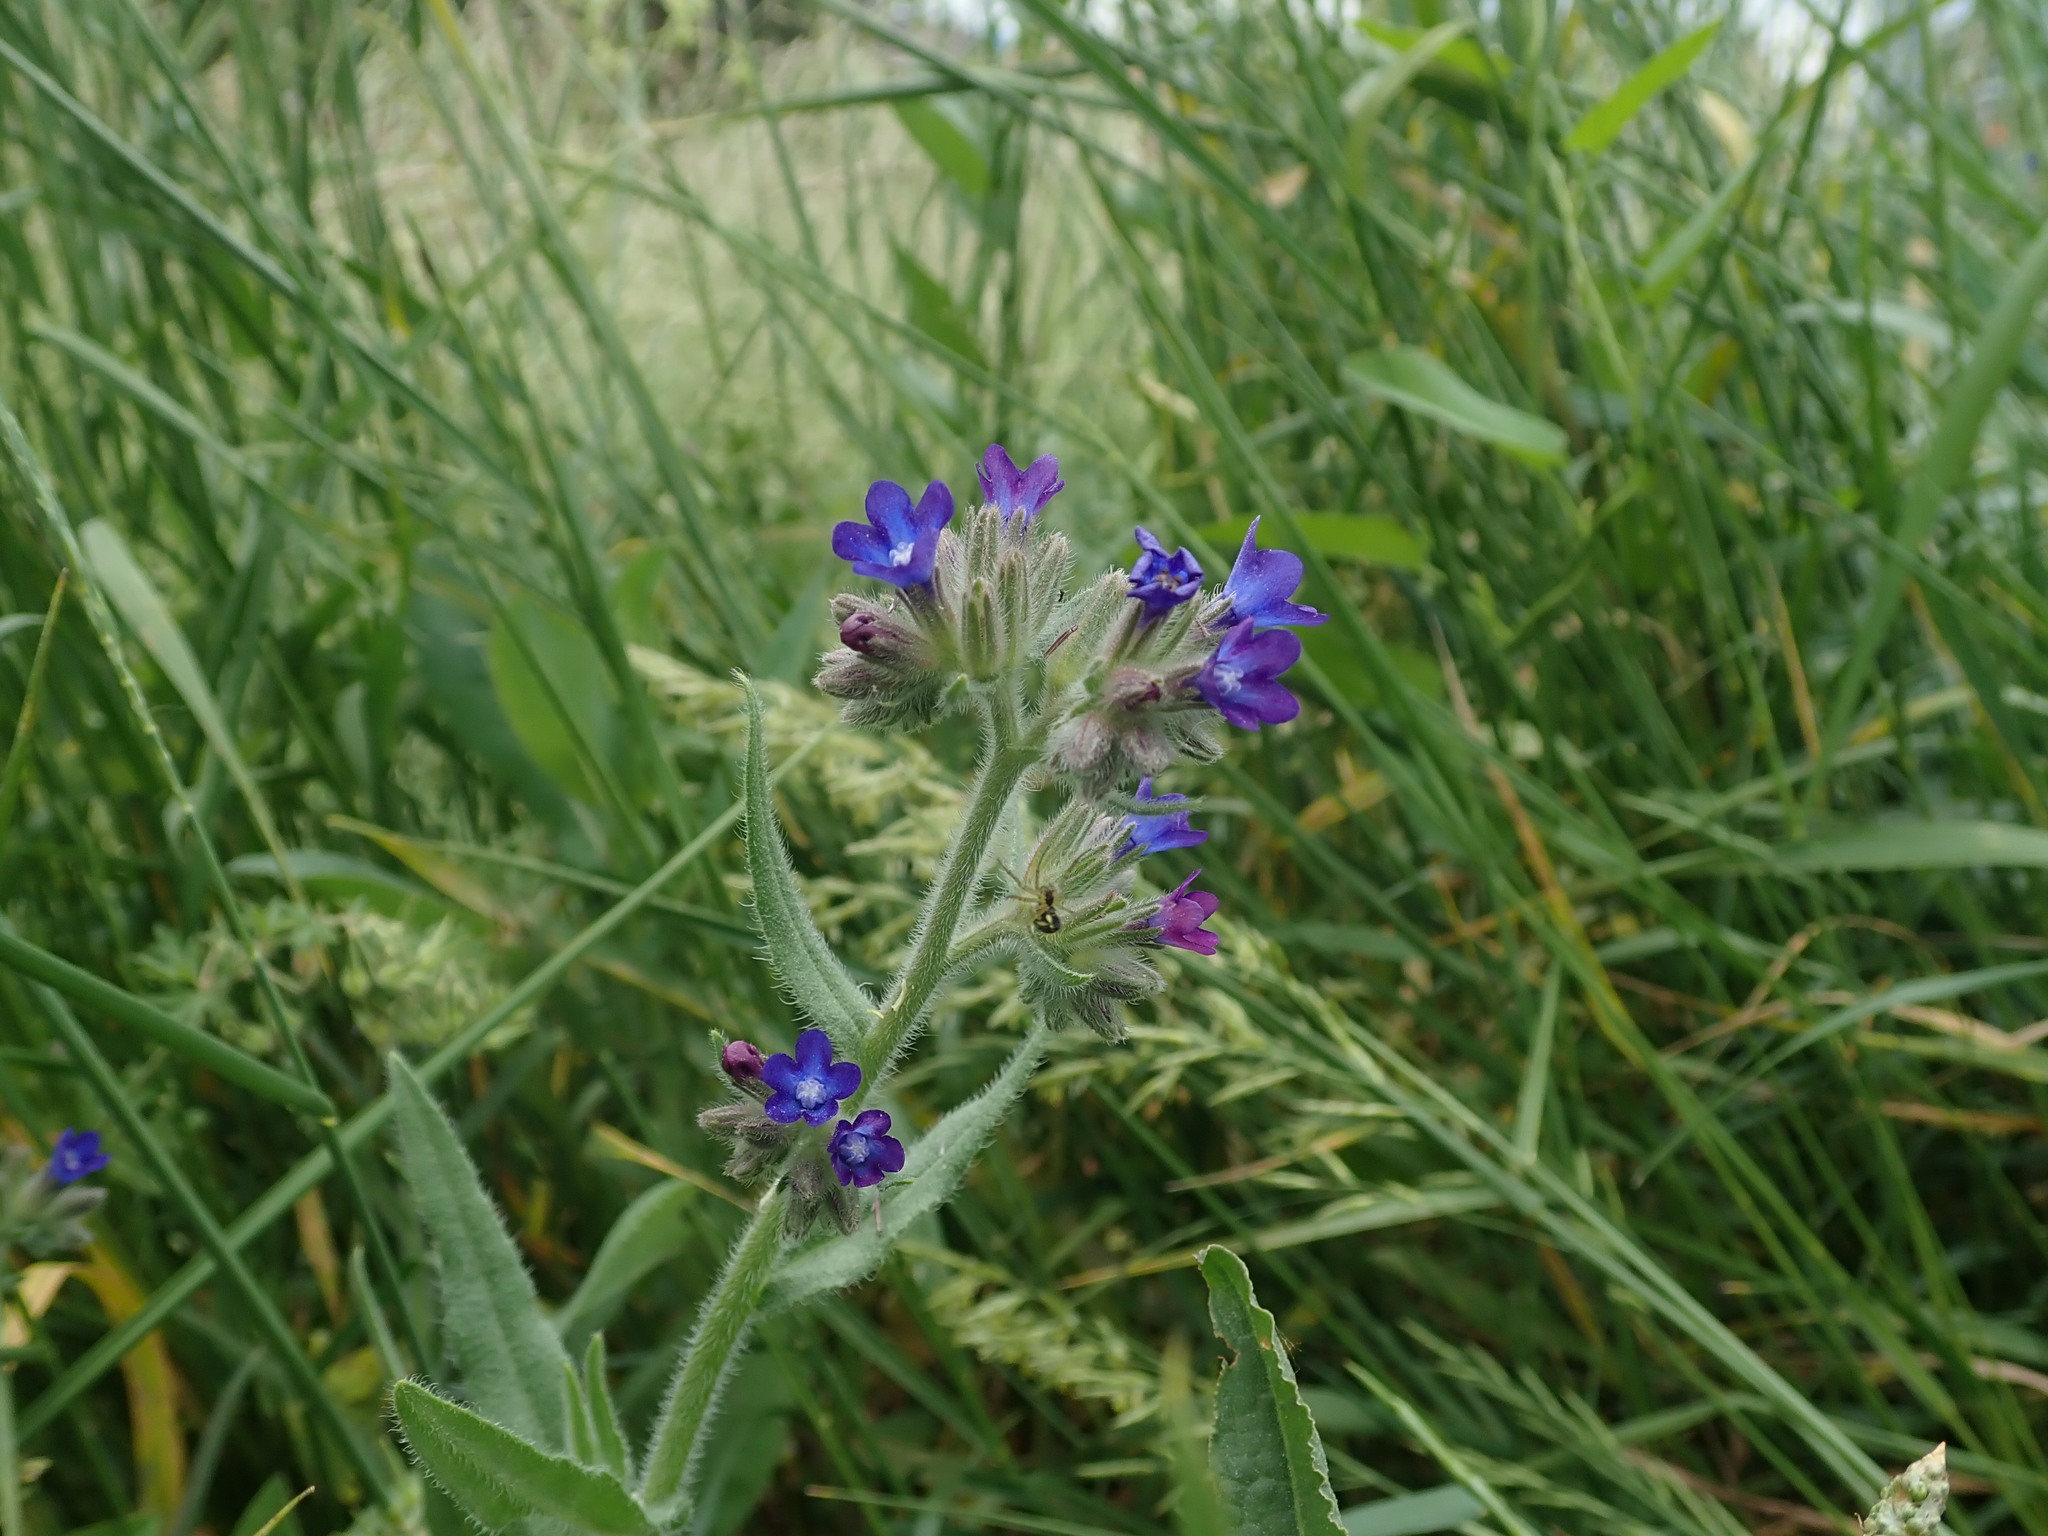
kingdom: Plantae
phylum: Tracheophyta
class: Magnoliopsida
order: Boraginales
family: Boraginaceae
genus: Anchusa
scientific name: Anchusa officinalis
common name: Alkanet
